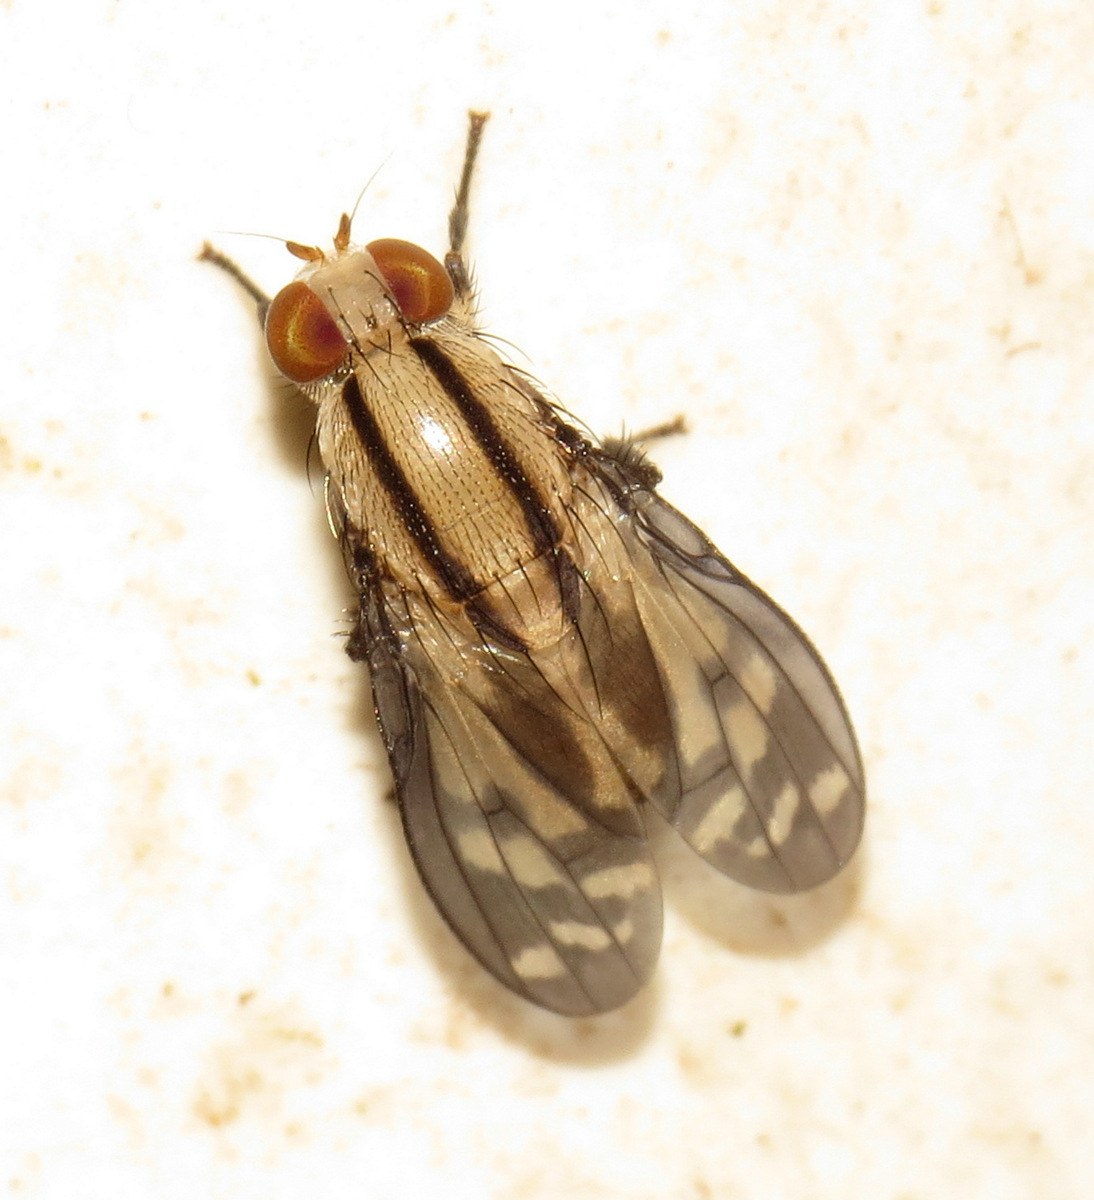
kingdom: Animalia
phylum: Arthropoda
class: Insecta
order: Diptera
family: Lauxaniidae
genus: Setulina
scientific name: Setulina geminata
